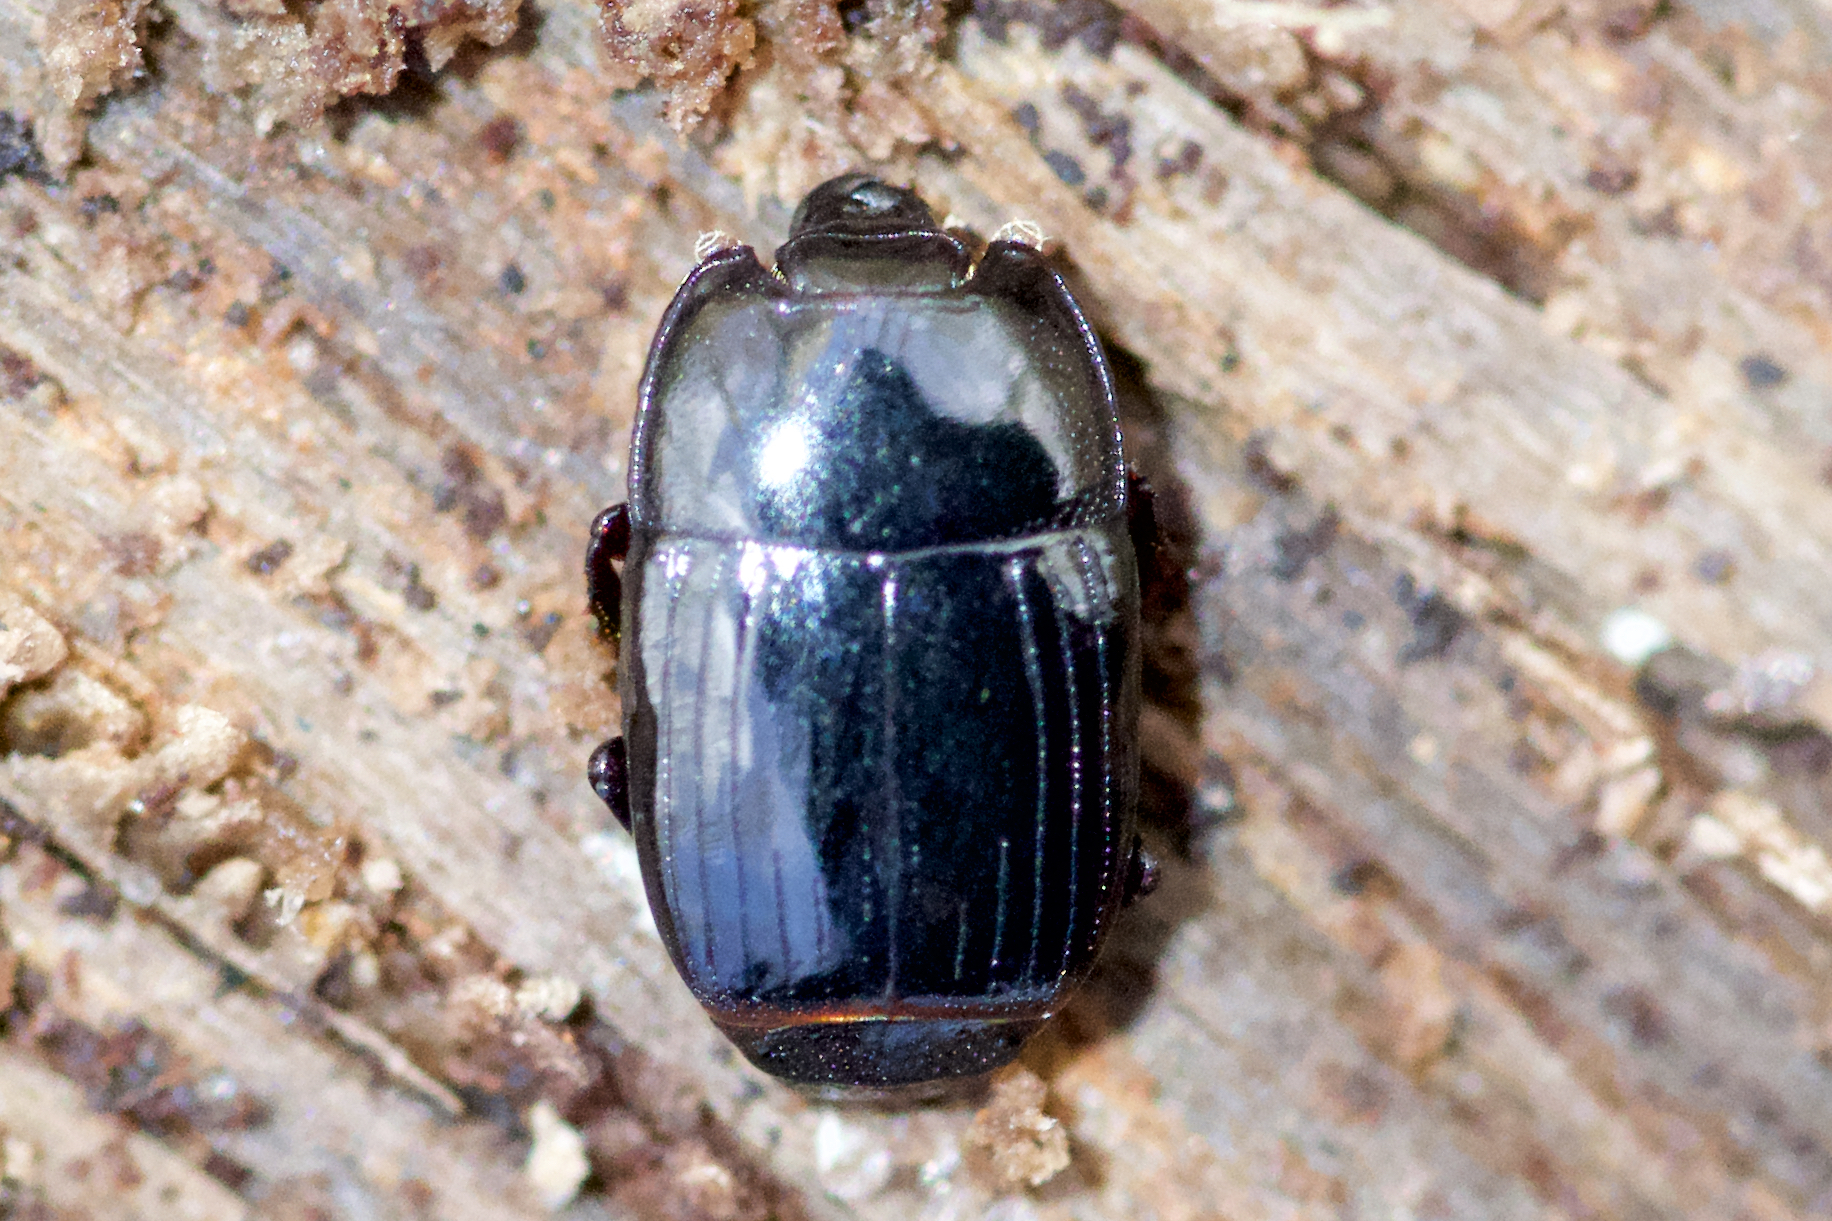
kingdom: Animalia
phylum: Arthropoda
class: Insecta
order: Coleoptera
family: Histeridae
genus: Platysoma
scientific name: Platysoma leconti
